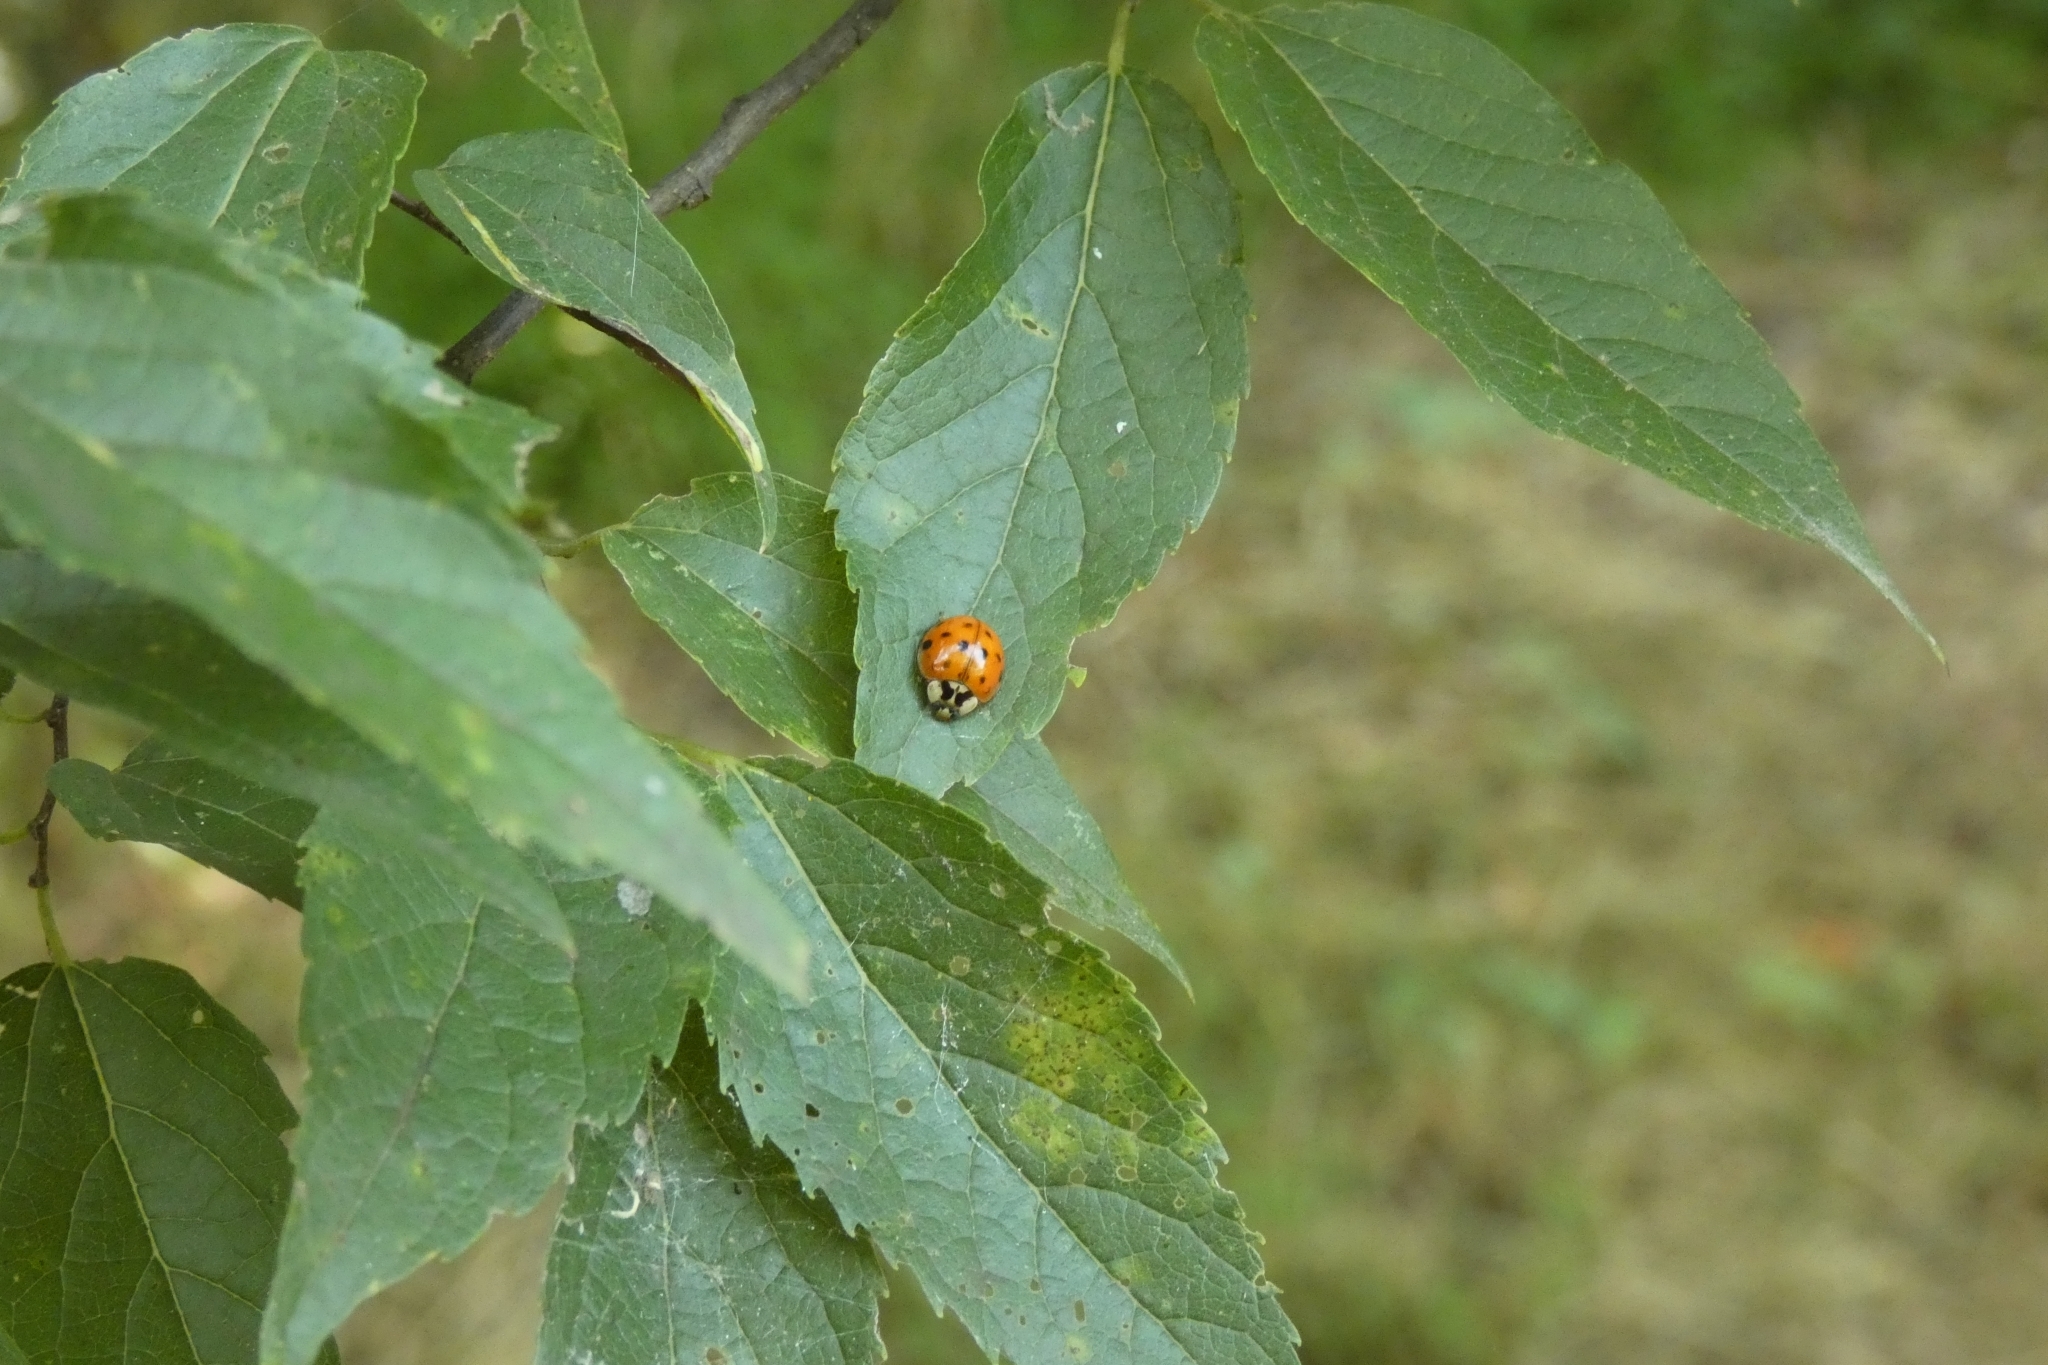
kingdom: Animalia
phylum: Arthropoda
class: Insecta
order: Coleoptera
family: Coccinellidae
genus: Harmonia
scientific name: Harmonia axyridis
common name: Harlequin ladybird
